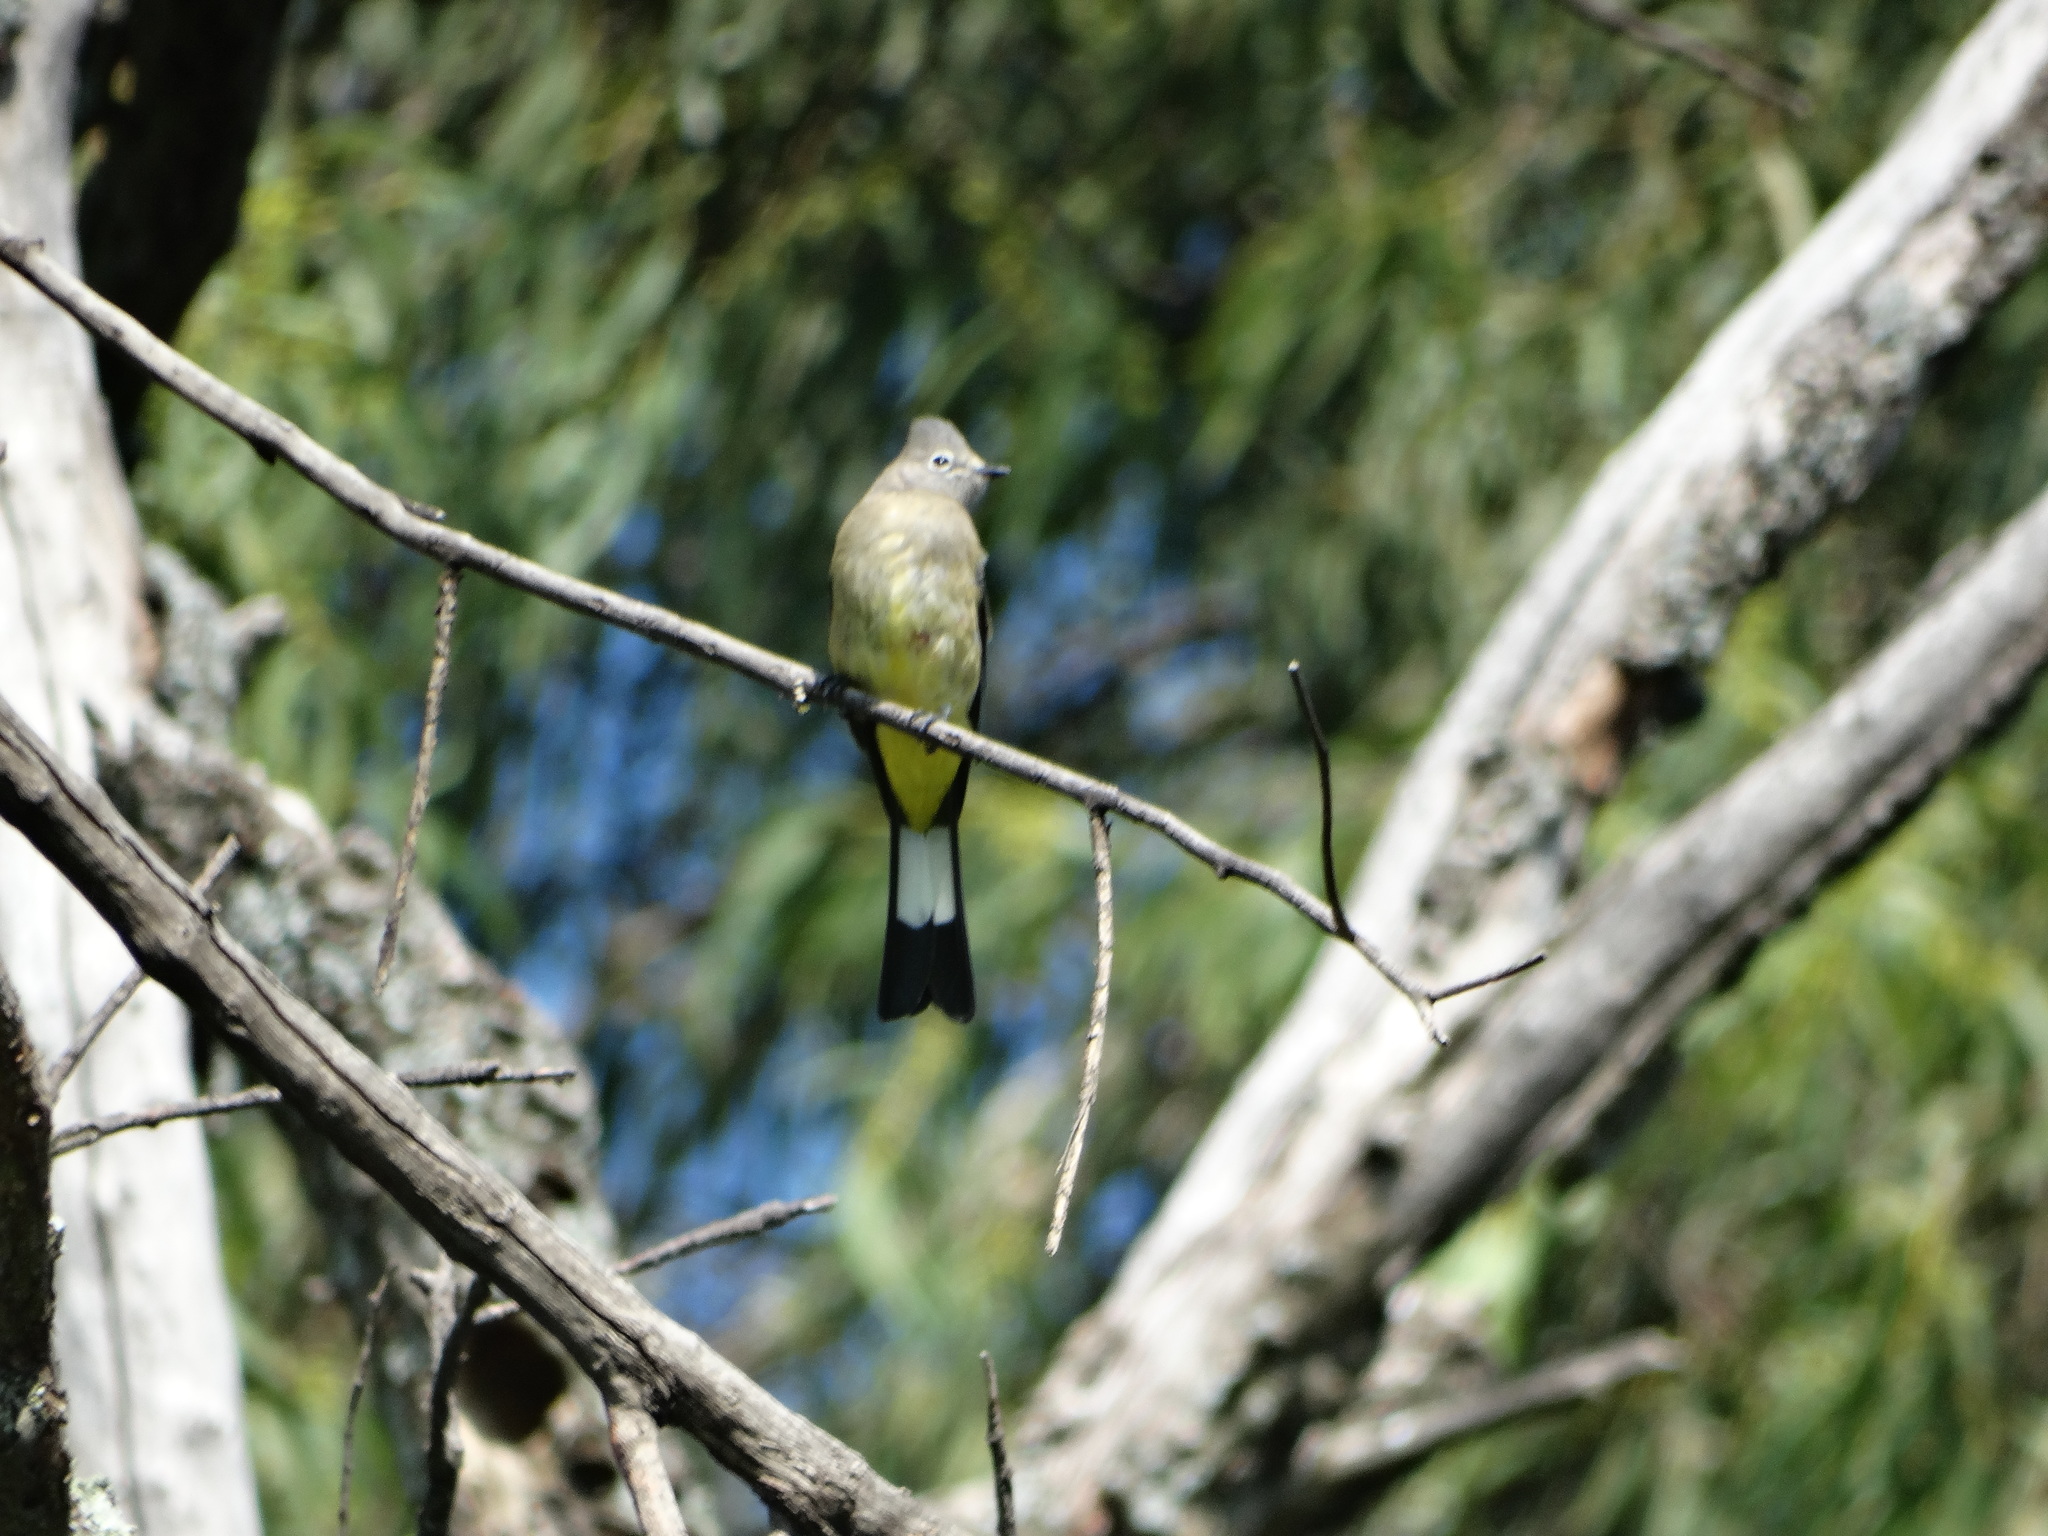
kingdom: Animalia
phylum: Chordata
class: Aves
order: Passeriformes
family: Ptilogonatidae
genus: Ptilogonys
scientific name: Ptilogonys cinereus
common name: Gray silky-flycatcher
